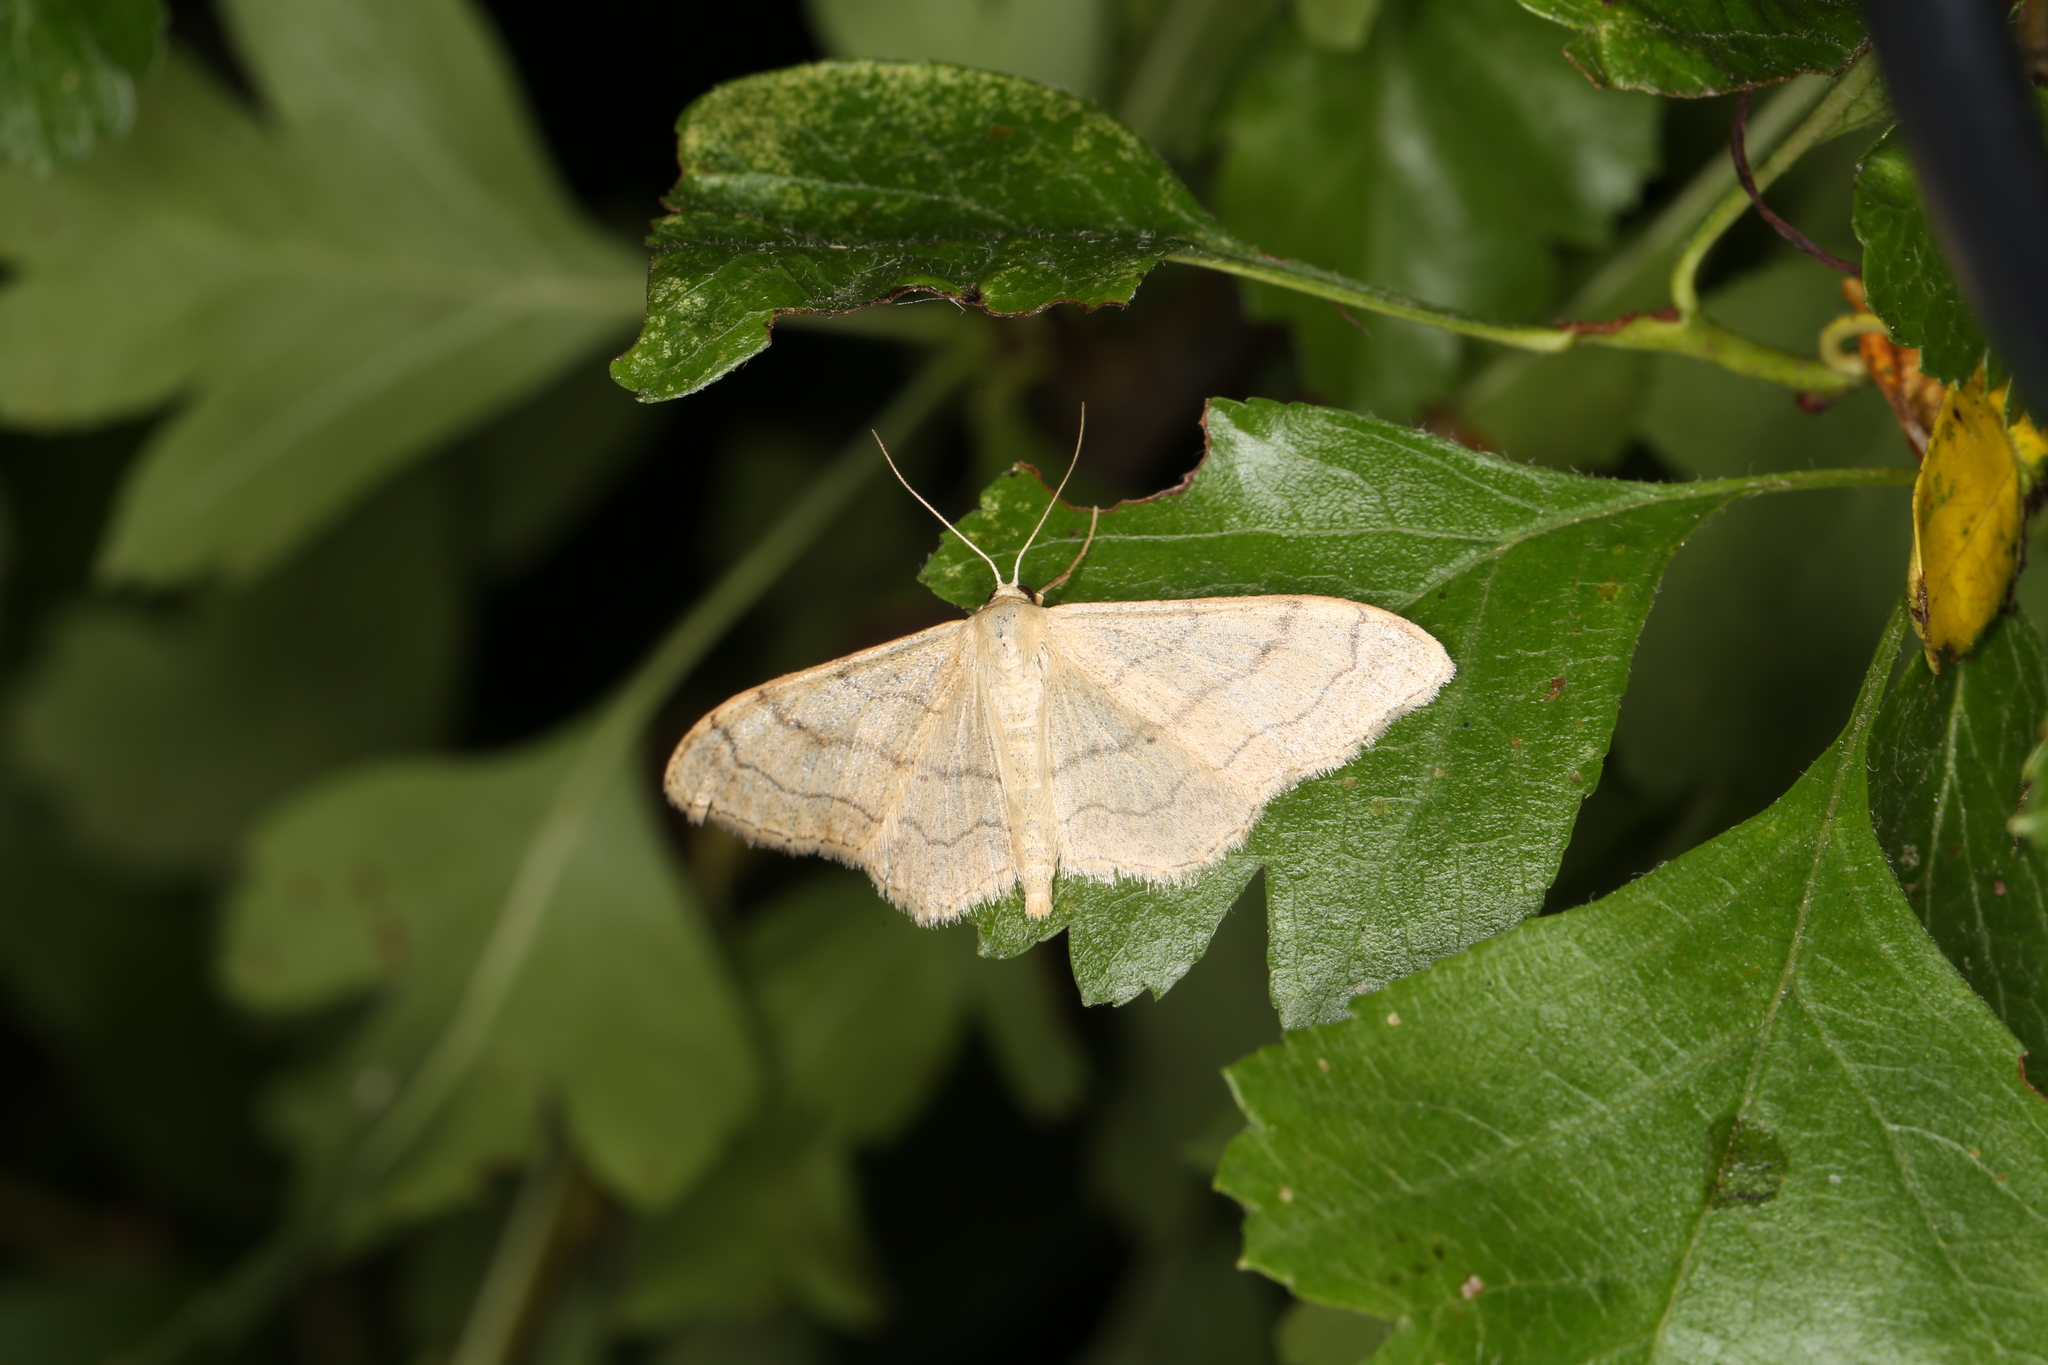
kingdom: Animalia
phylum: Arthropoda
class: Insecta
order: Lepidoptera
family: Geometridae
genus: Idaea
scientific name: Idaea aversata
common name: Riband wave
